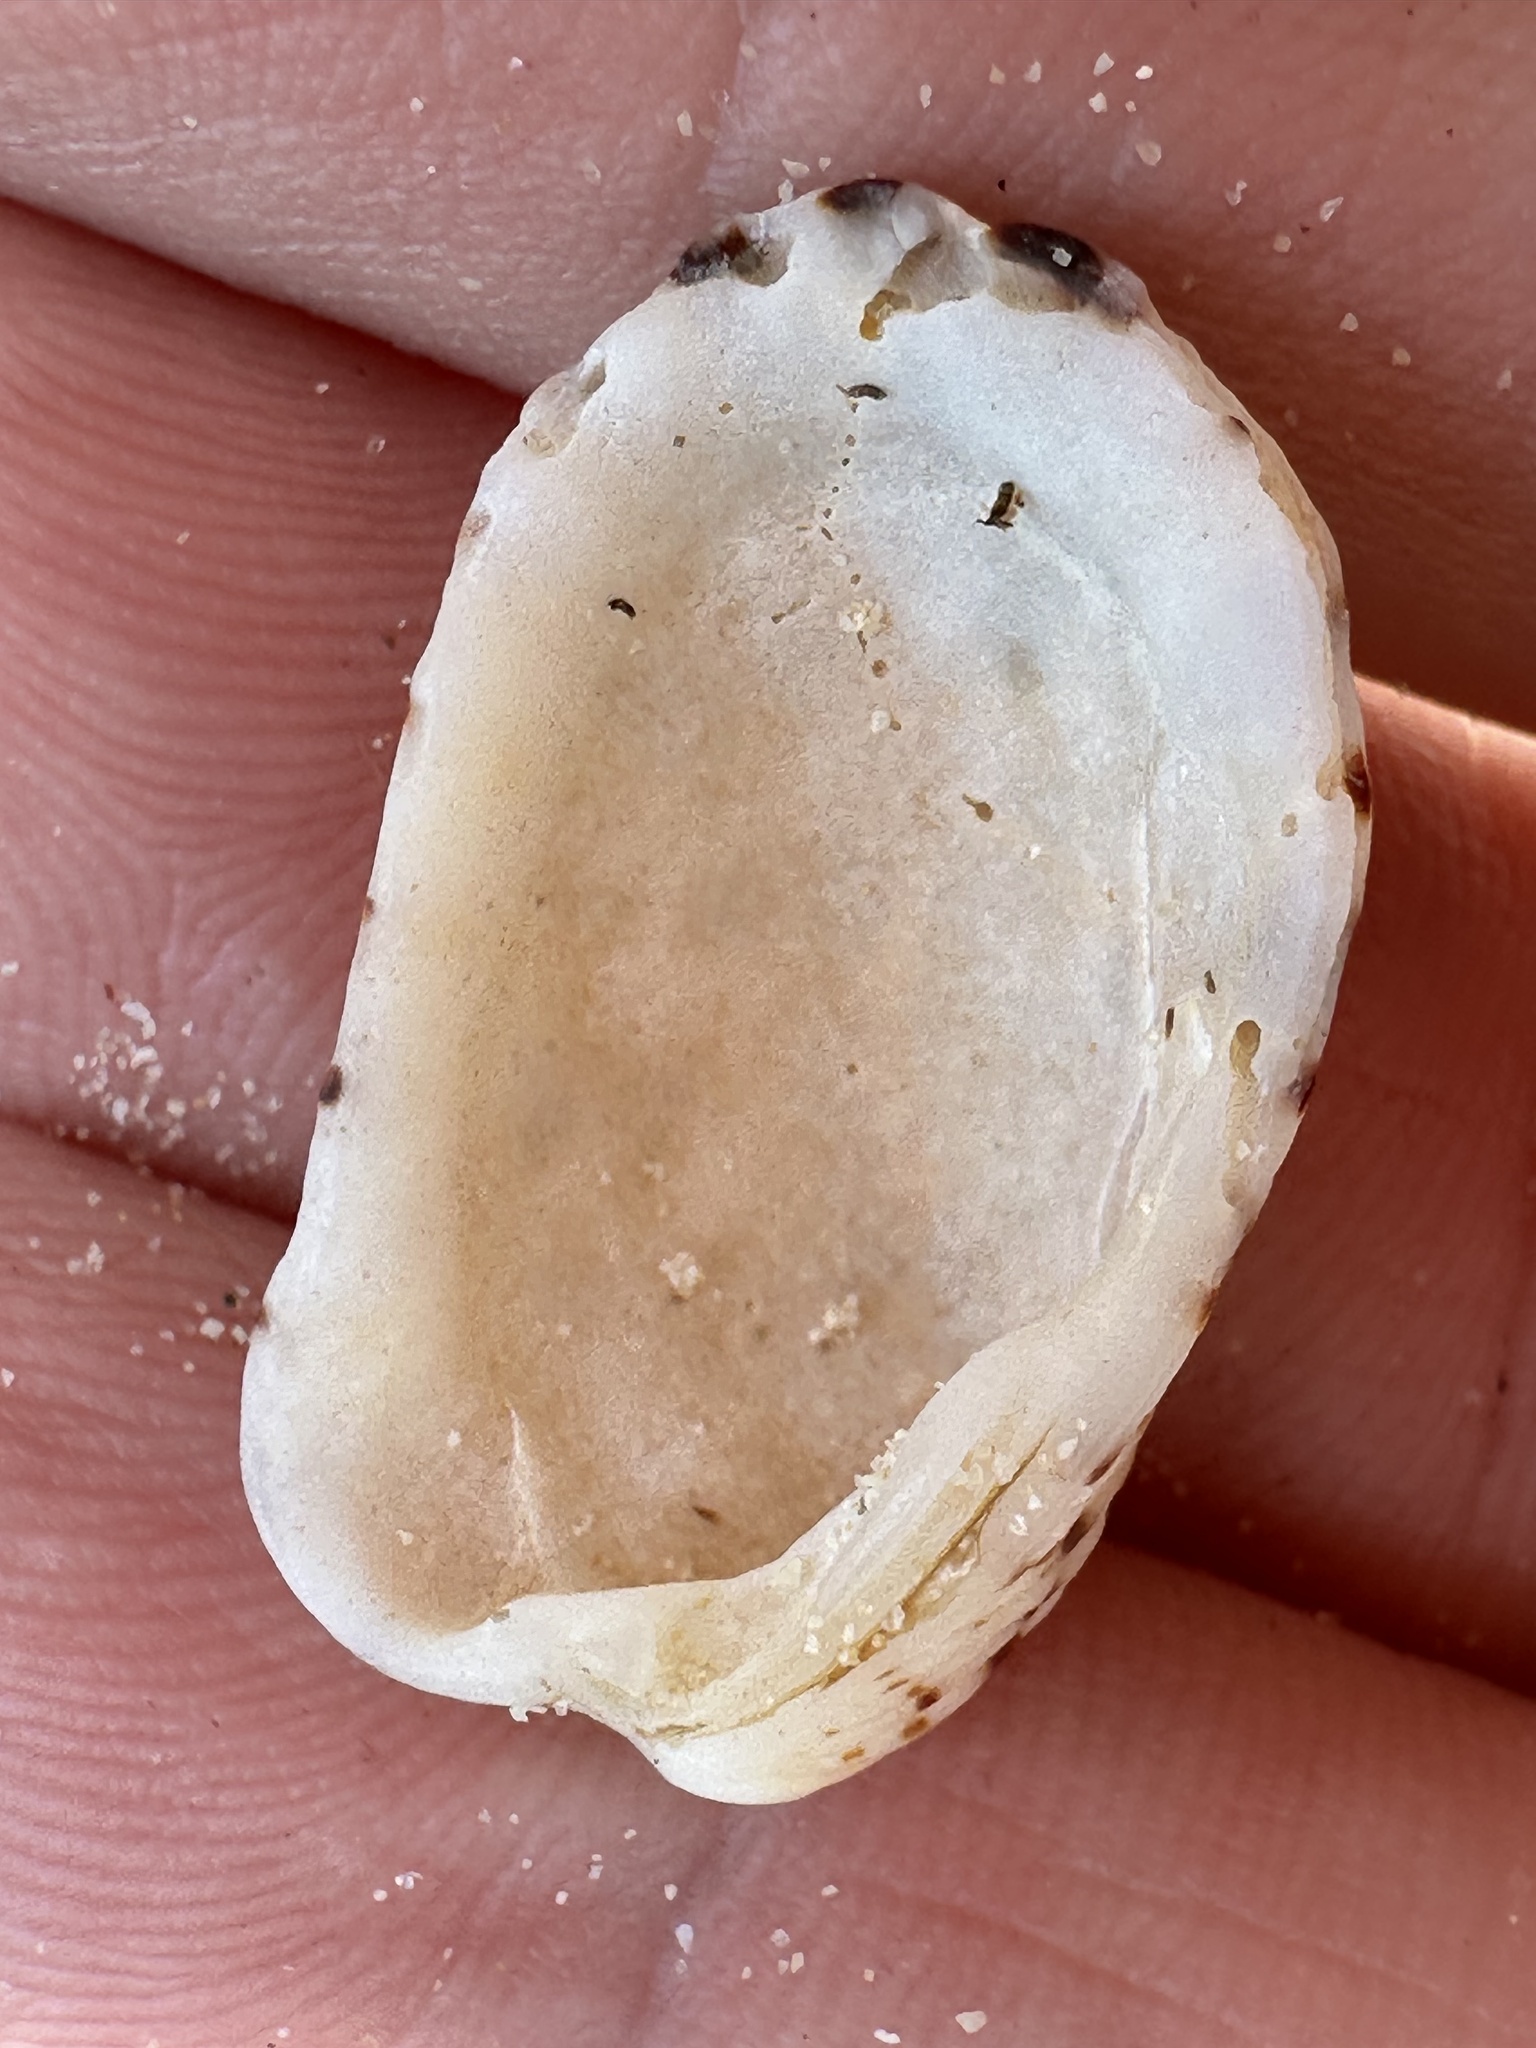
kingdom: Animalia
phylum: Mollusca
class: Bivalvia
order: Carditida
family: Carditidae
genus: Cardita
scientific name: Cardita variegata
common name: Rectangular false cockle
